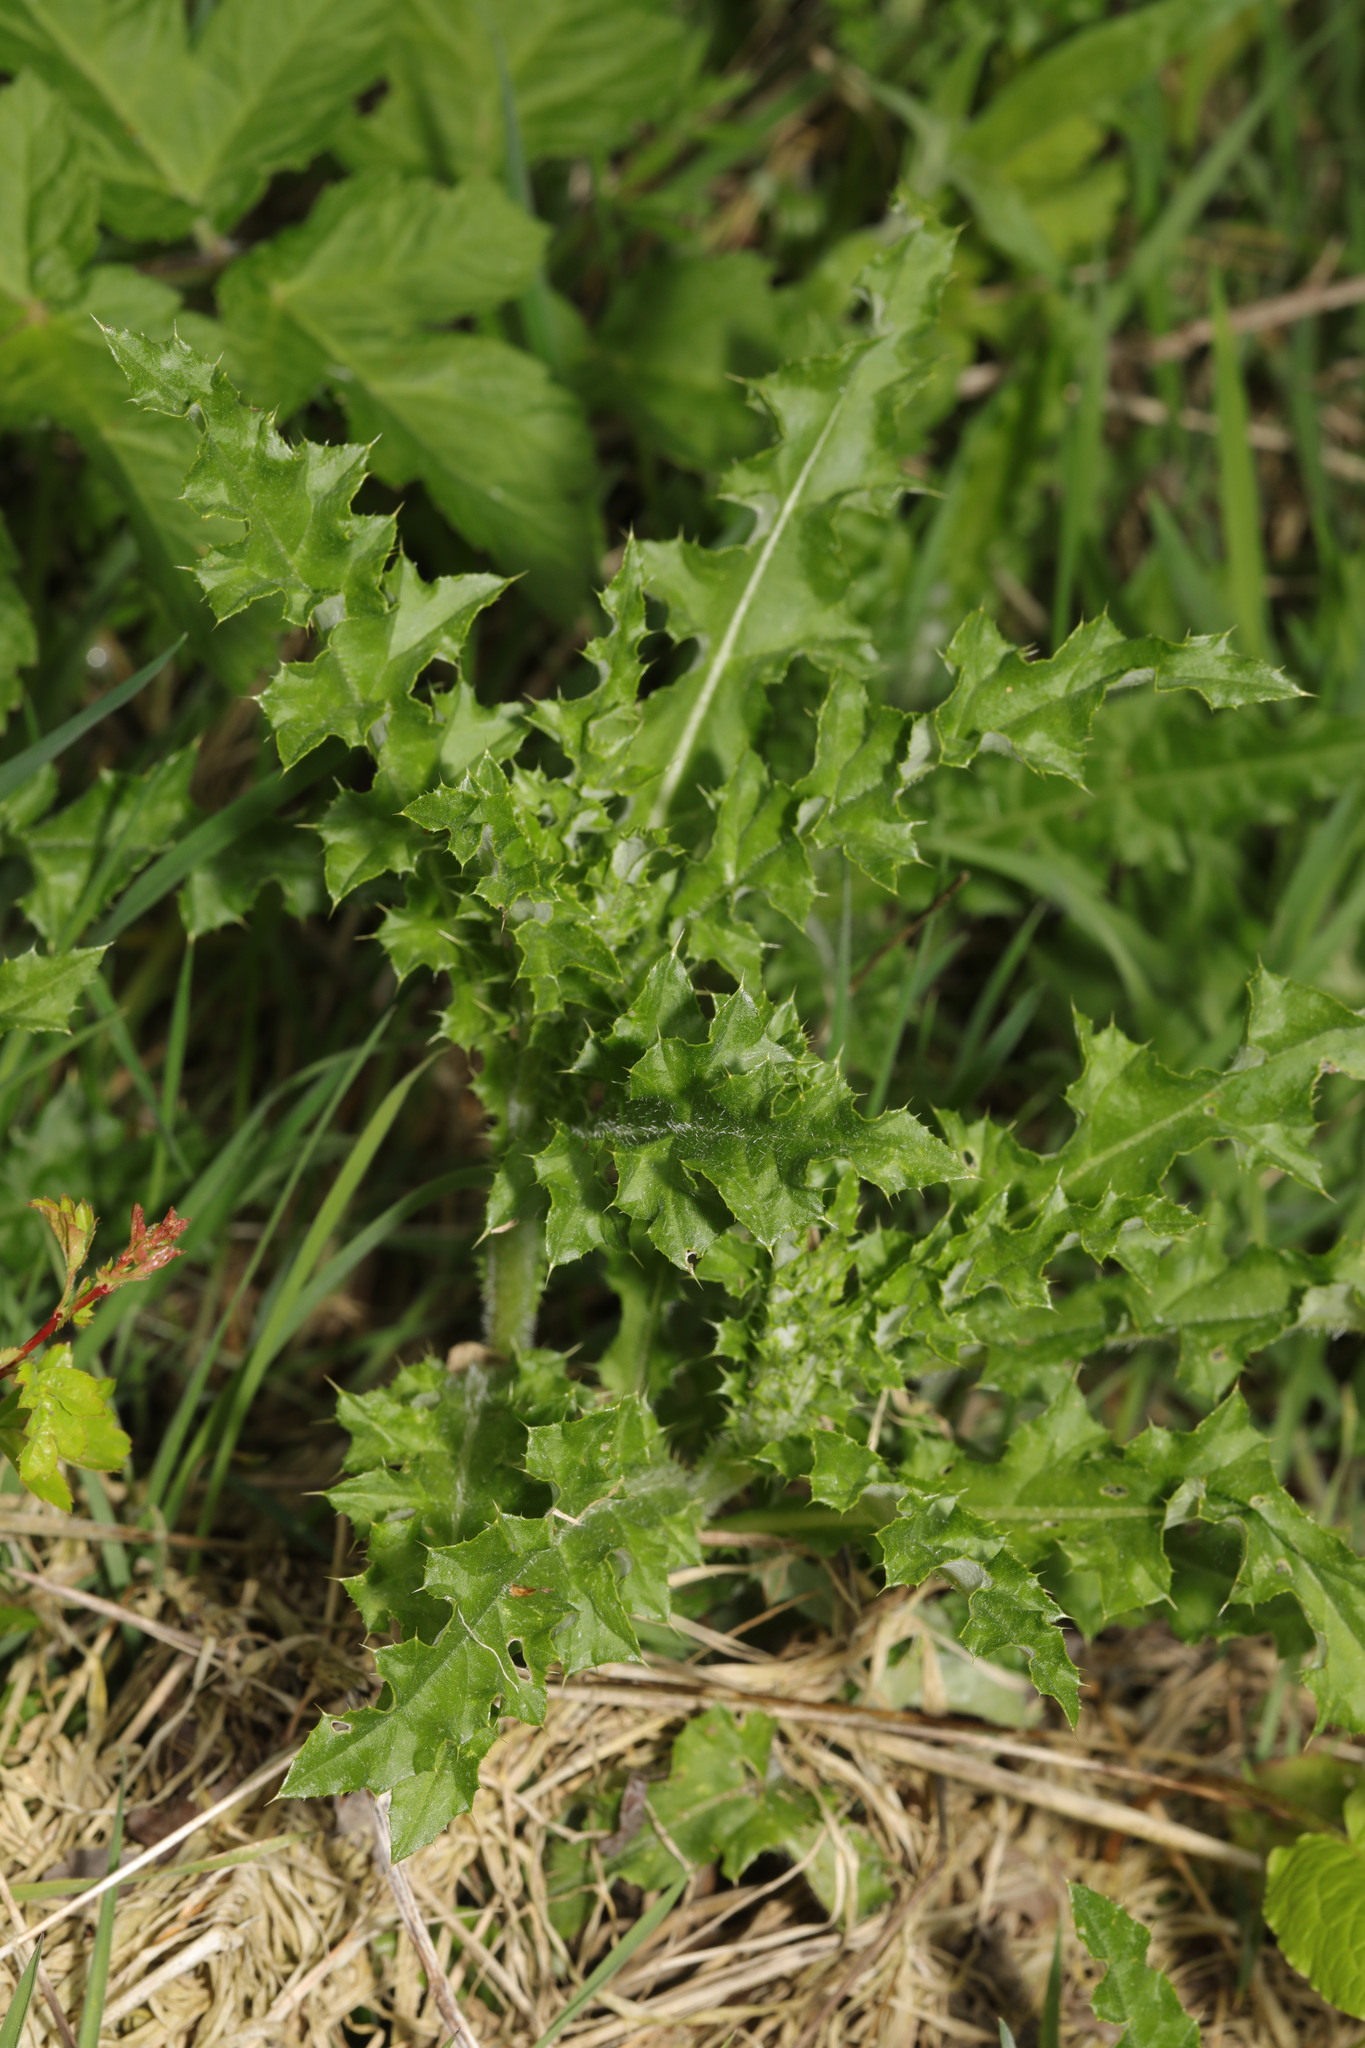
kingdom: Plantae
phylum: Tracheophyta
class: Magnoliopsida
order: Asterales
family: Asteraceae
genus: Cirsium
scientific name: Cirsium arvense
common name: Creeping thistle
